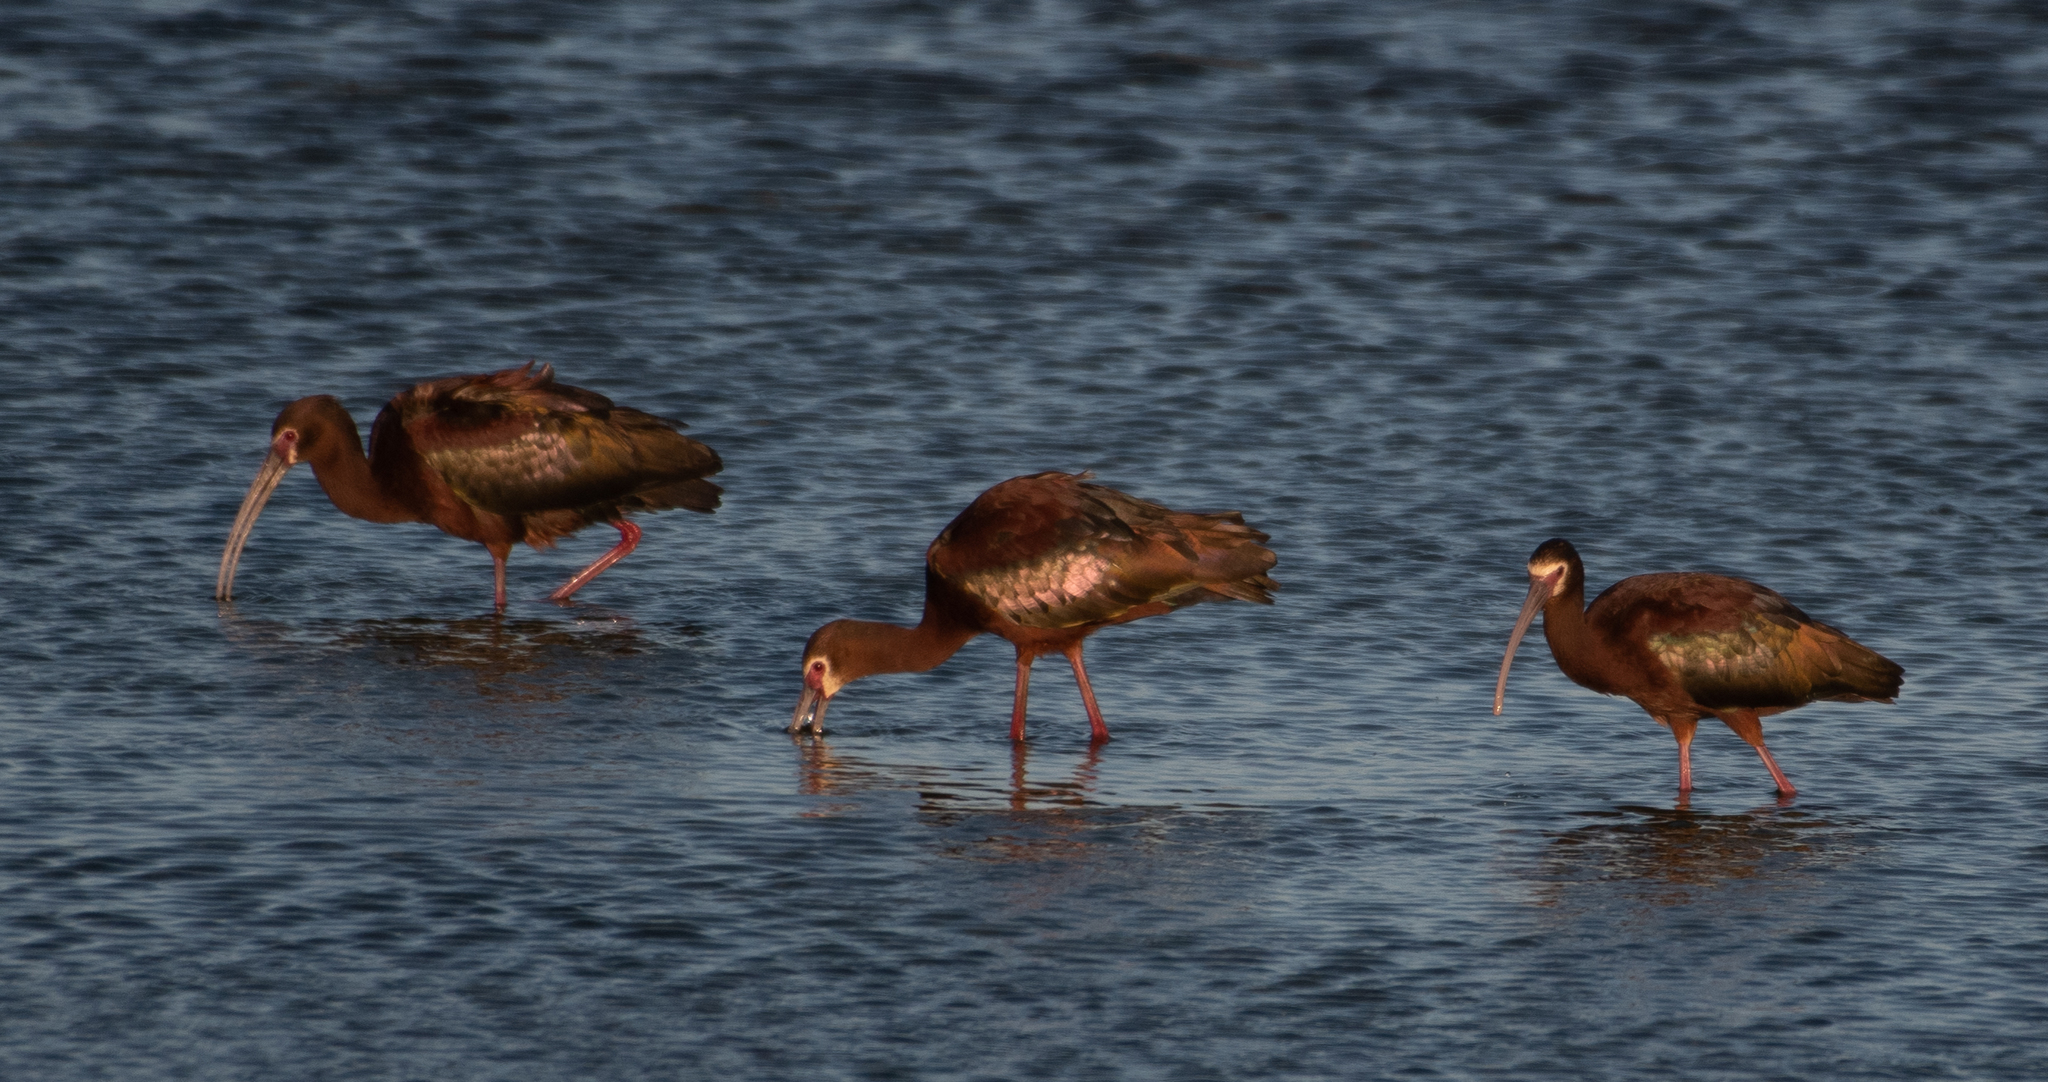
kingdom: Animalia
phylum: Chordata
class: Aves
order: Pelecaniformes
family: Threskiornithidae
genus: Plegadis
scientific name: Plegadis chihi
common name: White-faced ibis
